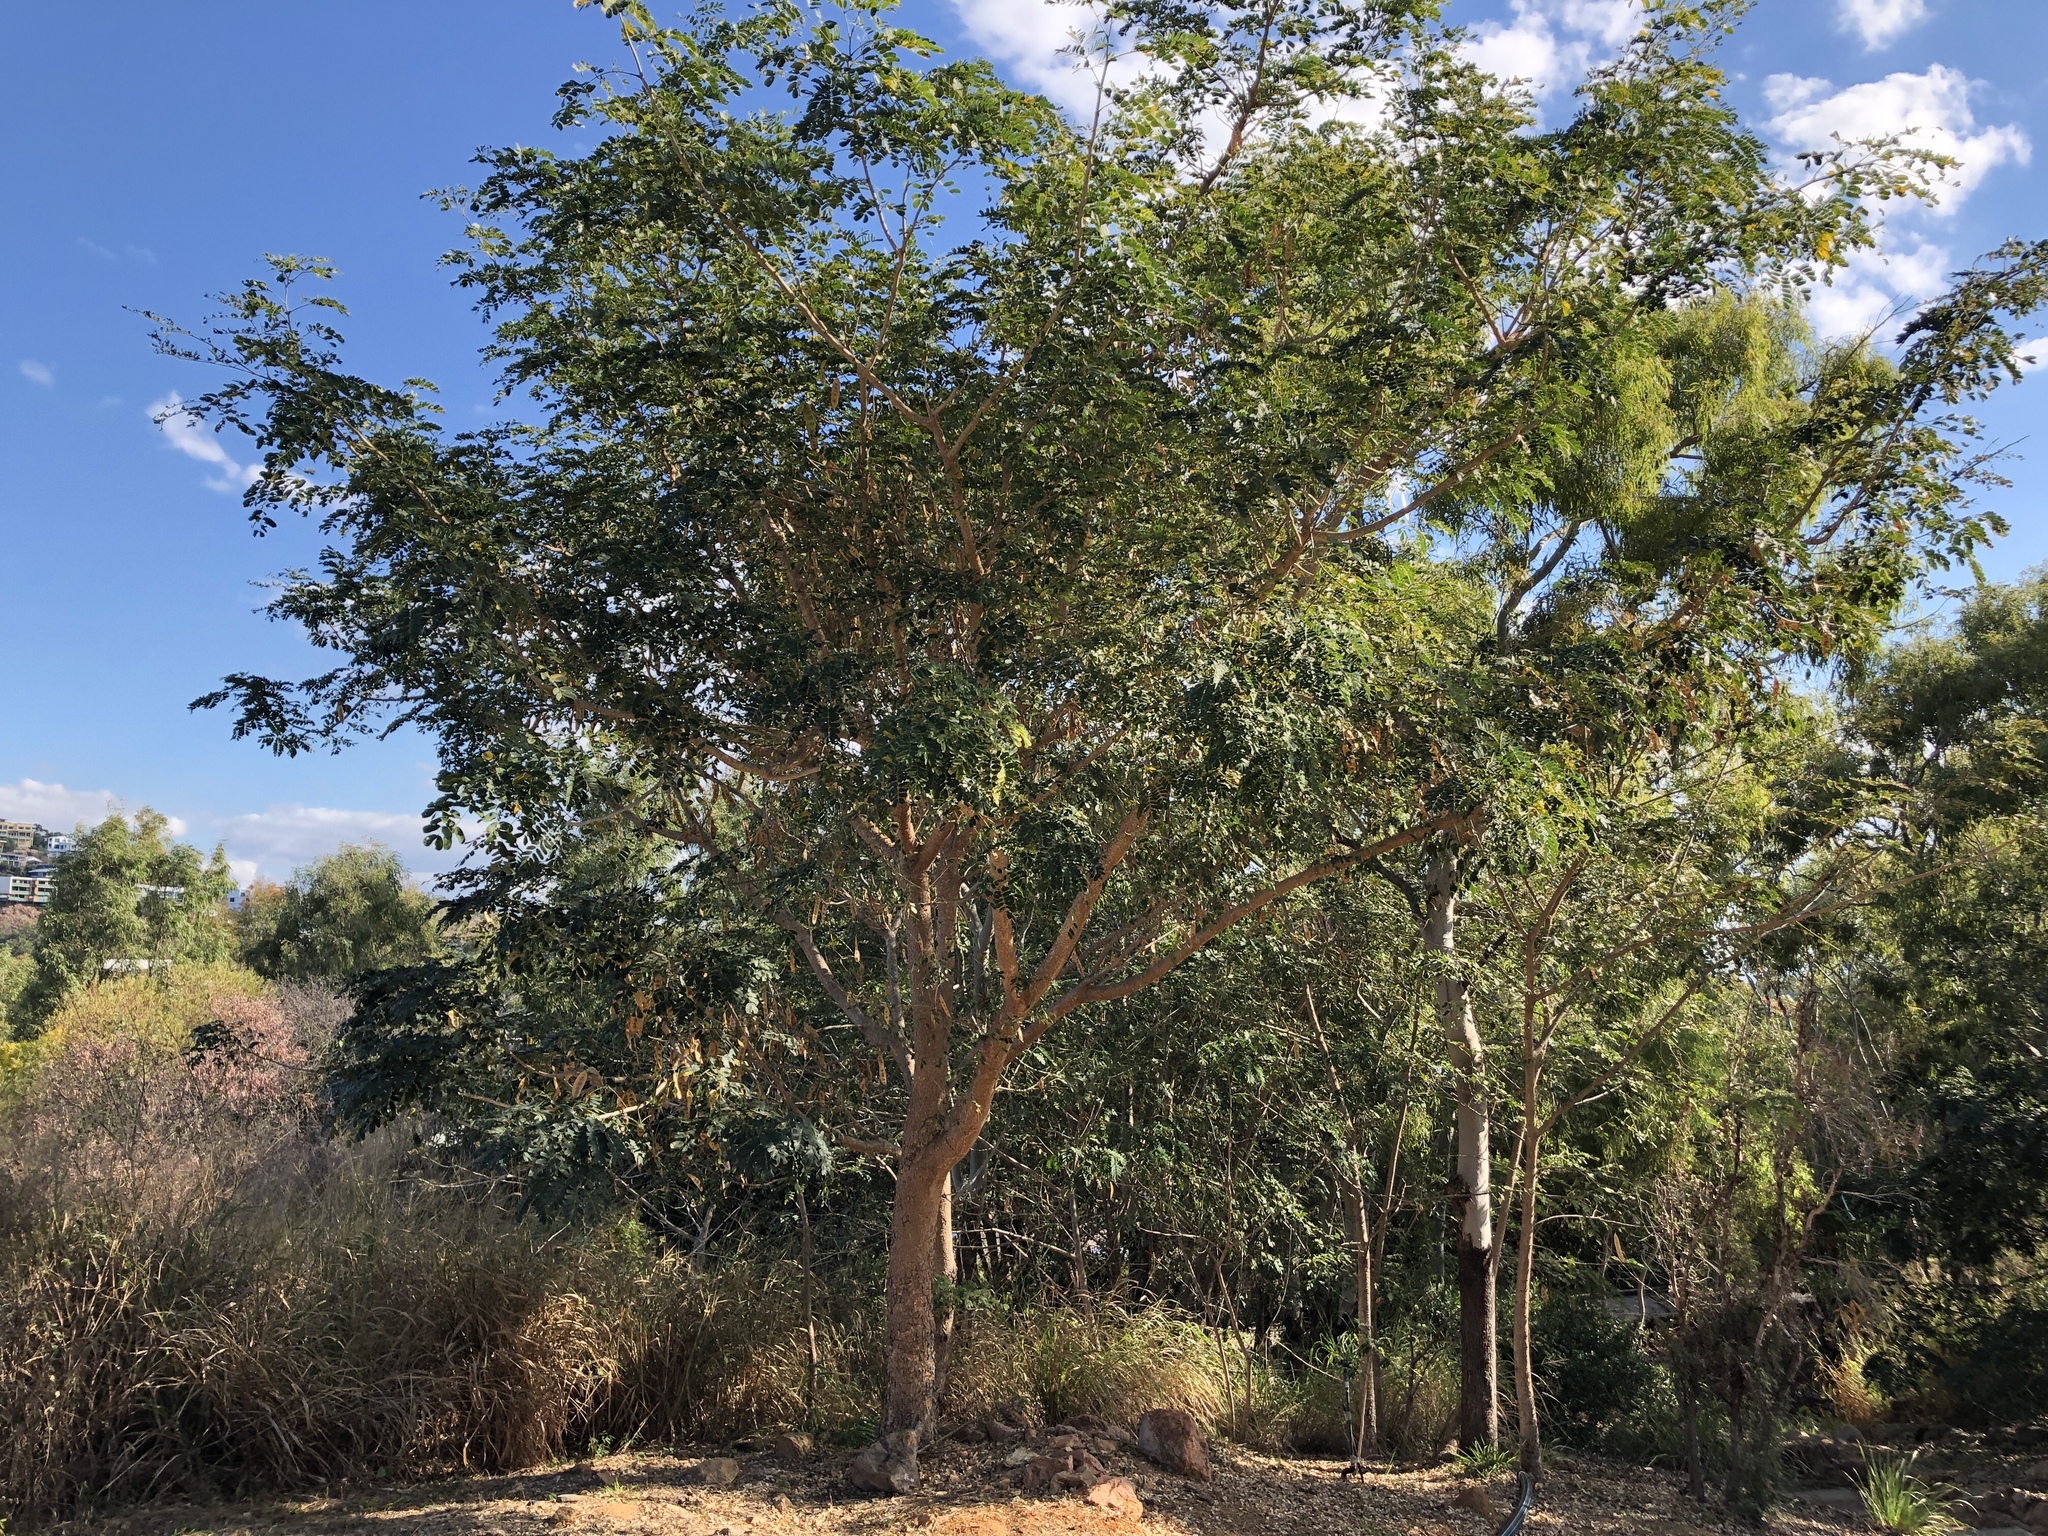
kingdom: Plantae
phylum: Tracheophyta
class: Magnoliopsida
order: Fabales
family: Fabaceae
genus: Albizia
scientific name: Albizia lebbeck
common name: Woman's tongue
